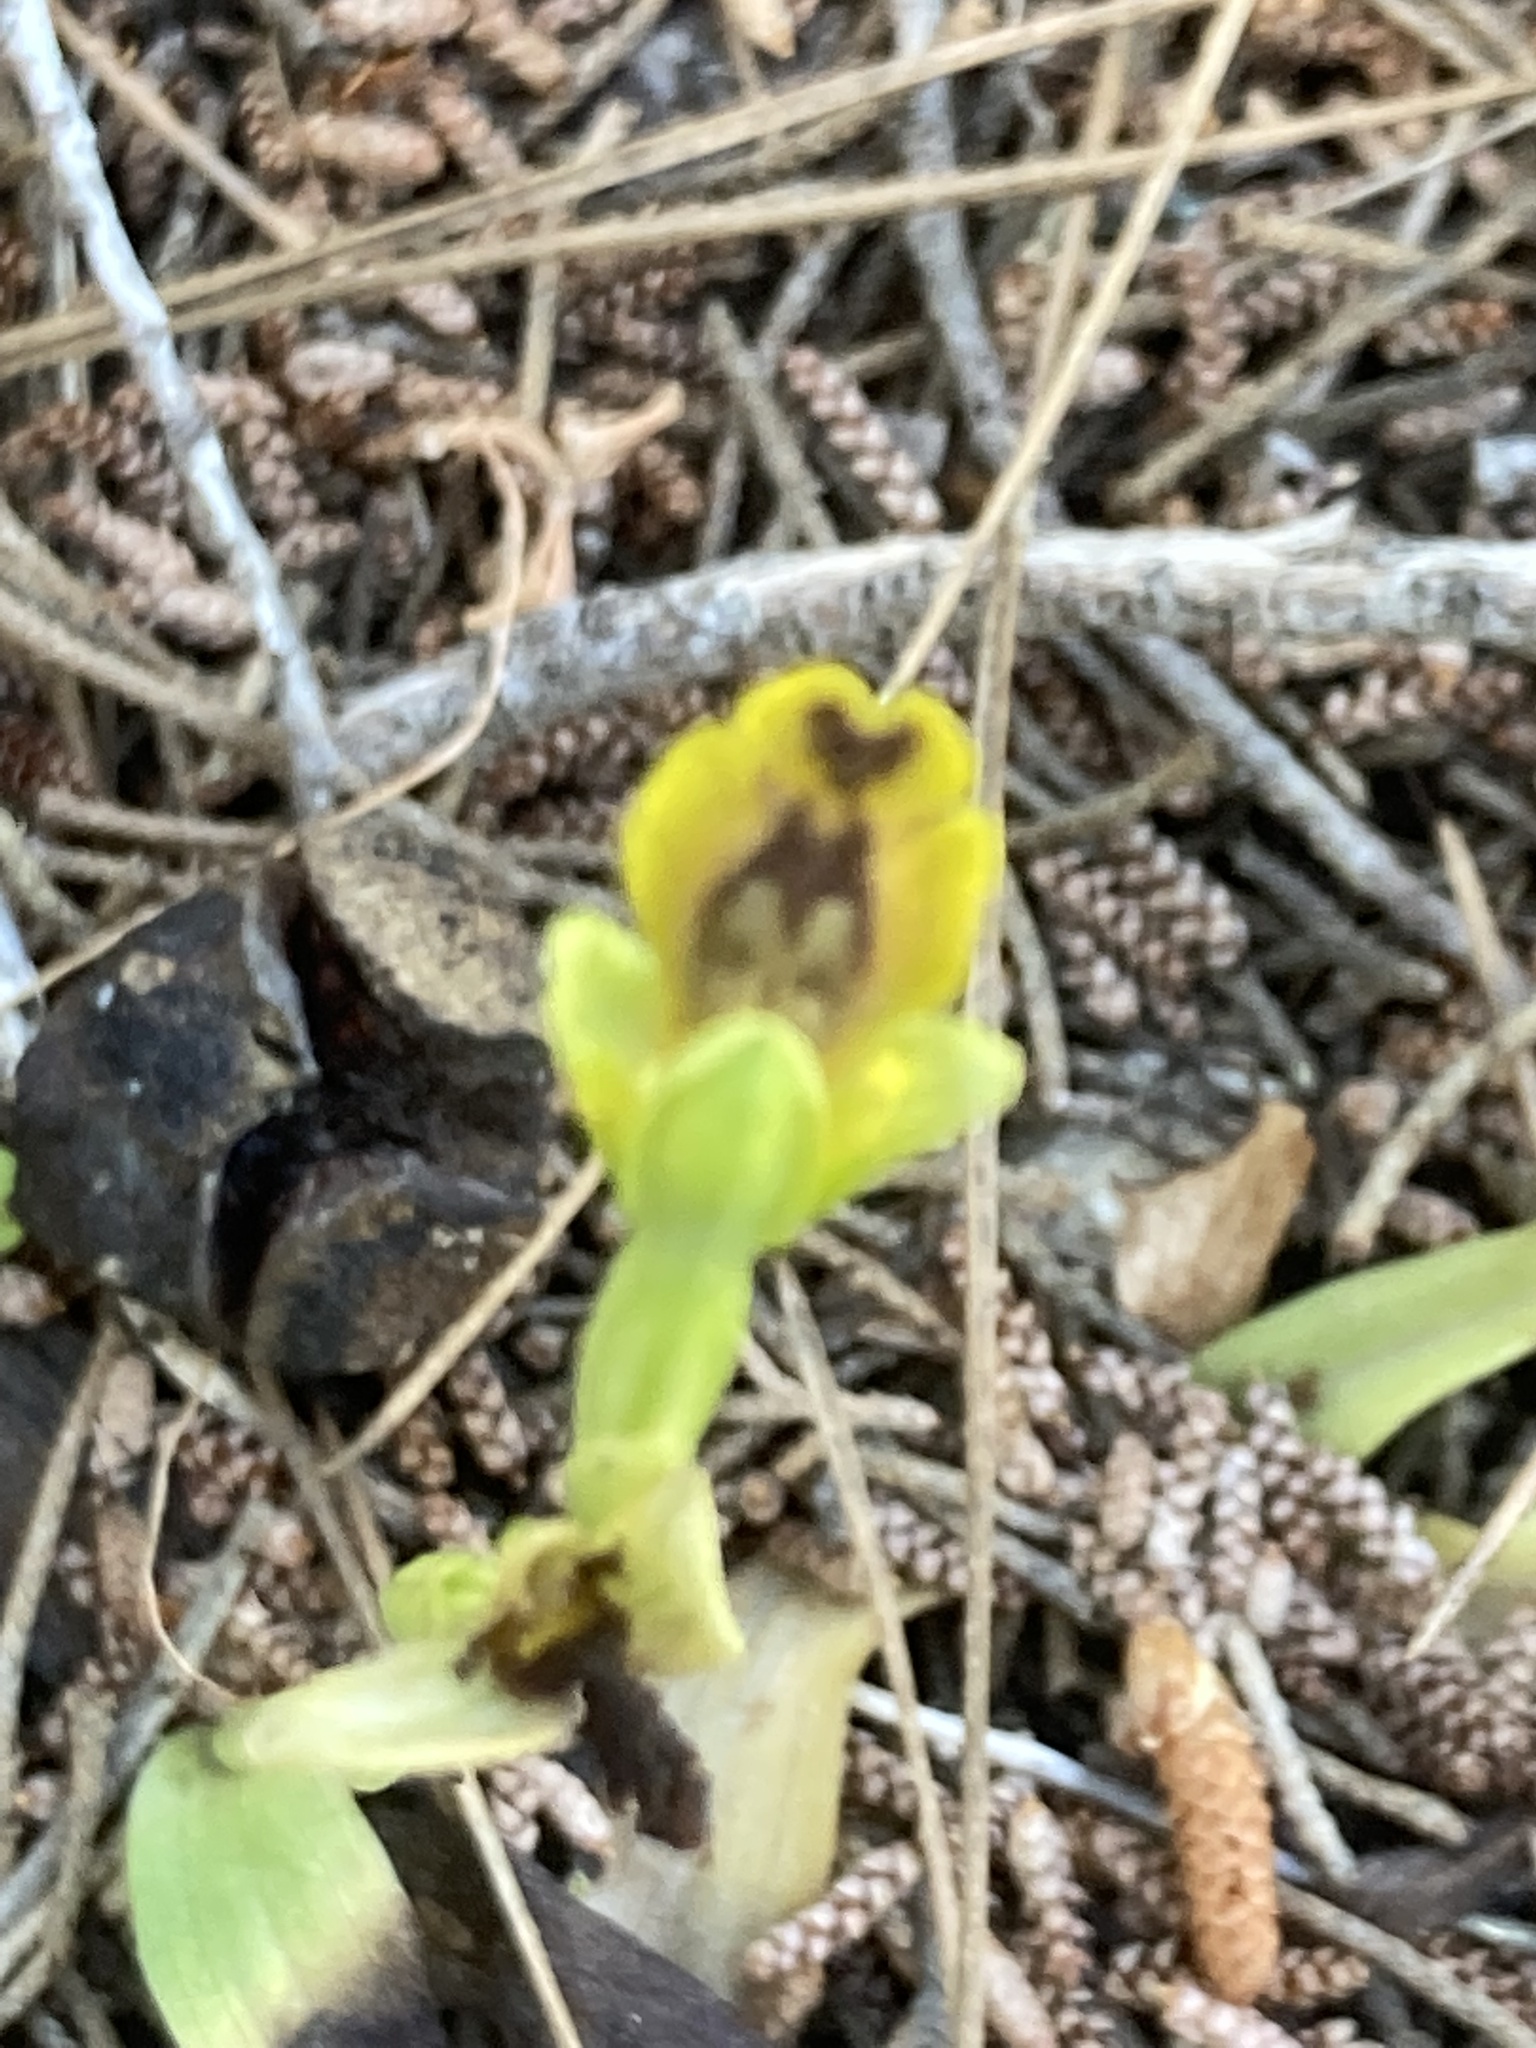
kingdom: Plantae
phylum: Tracheophyta
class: Liliopsida
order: Asparagales
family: Orchidaceae
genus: Ophrys
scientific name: Ophrys lutea
